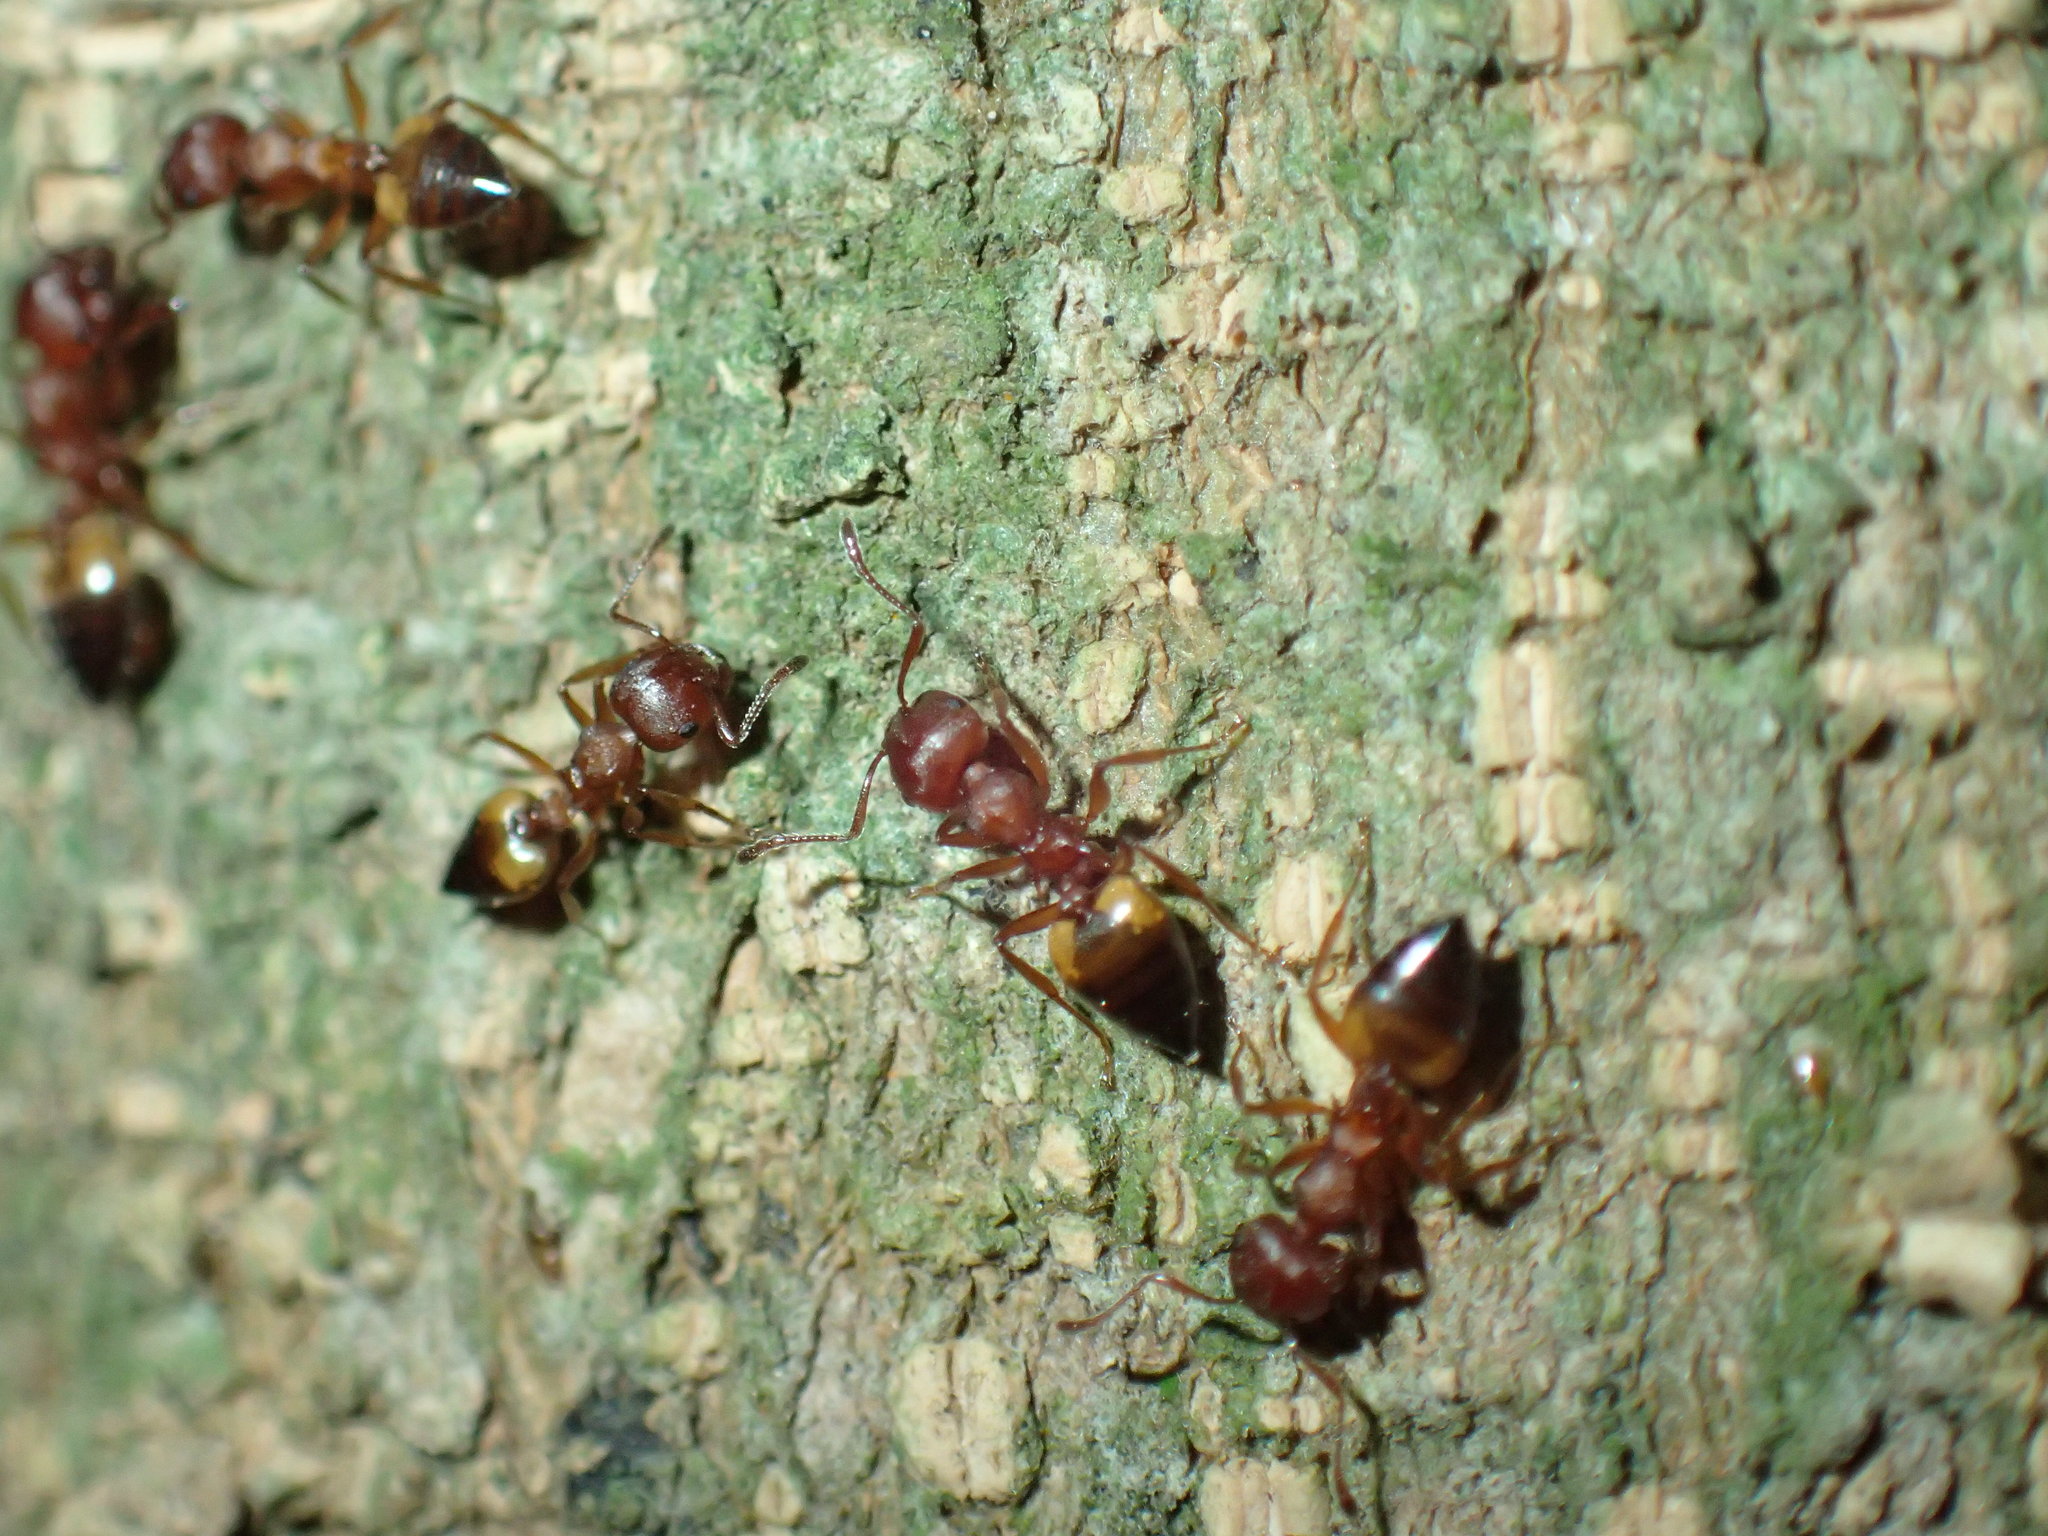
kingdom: Animalia
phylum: Arthropoda
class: Insecta
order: Hymenoptera
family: Formicidae
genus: Crematogaster
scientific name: Crematogaster castanea
